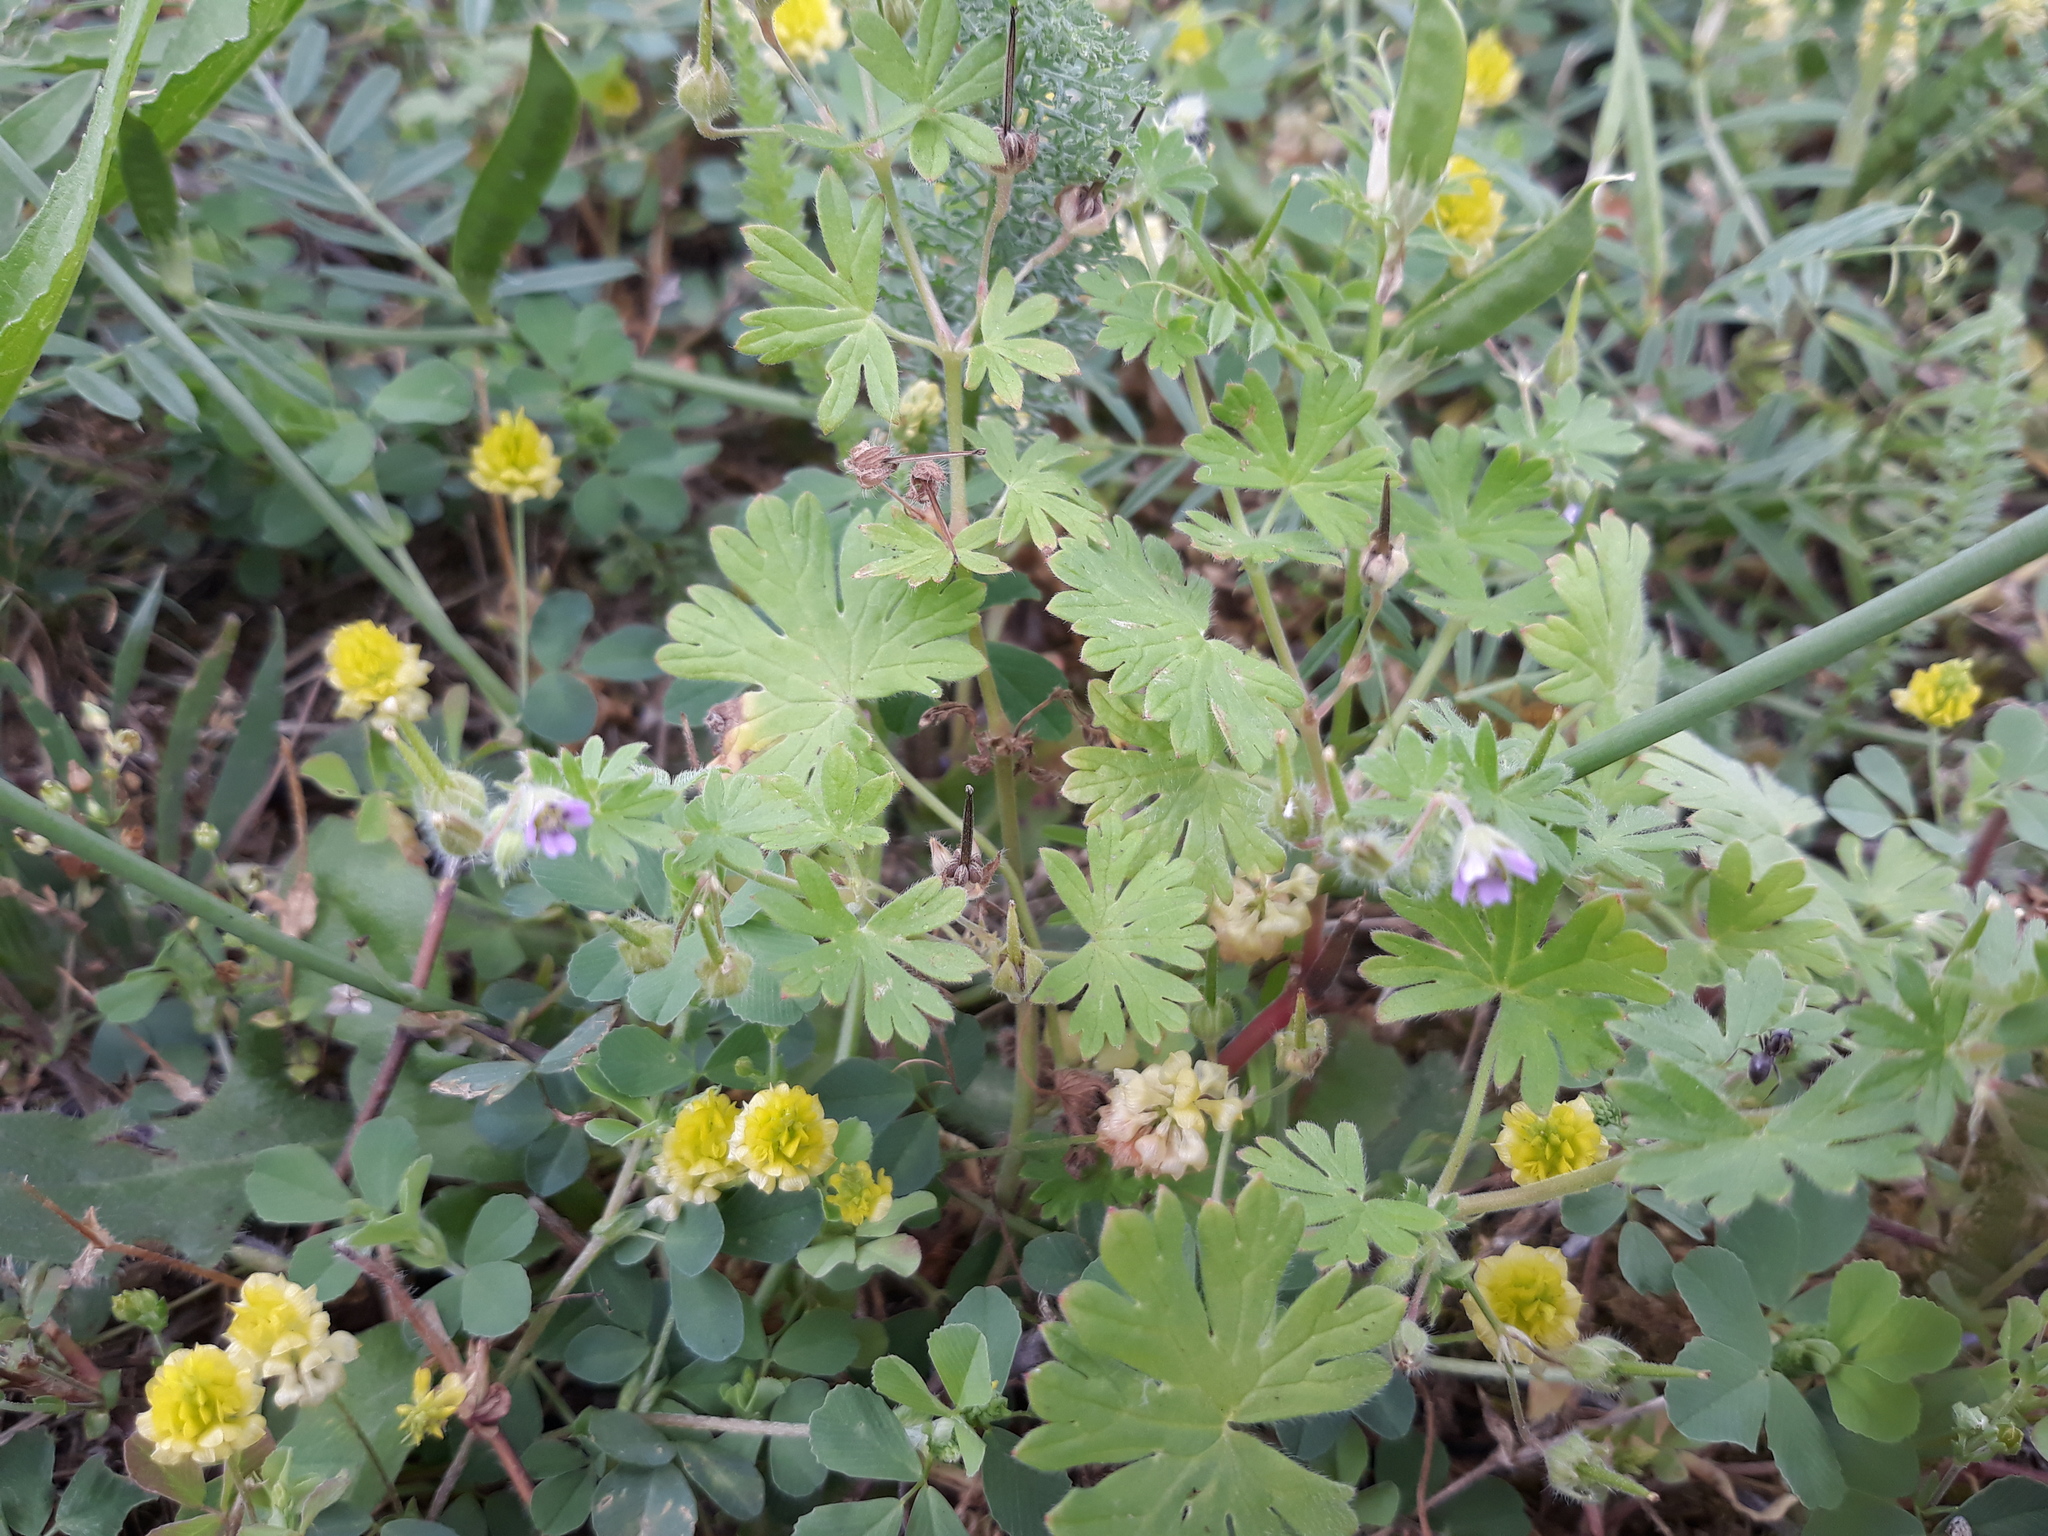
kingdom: Plantae
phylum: Tracheophyta
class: Magnoliopsida
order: Geraniales
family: Geraniaceae
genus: Geranium
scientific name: Geranium molle
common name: Dove's-foot crane's-bill
